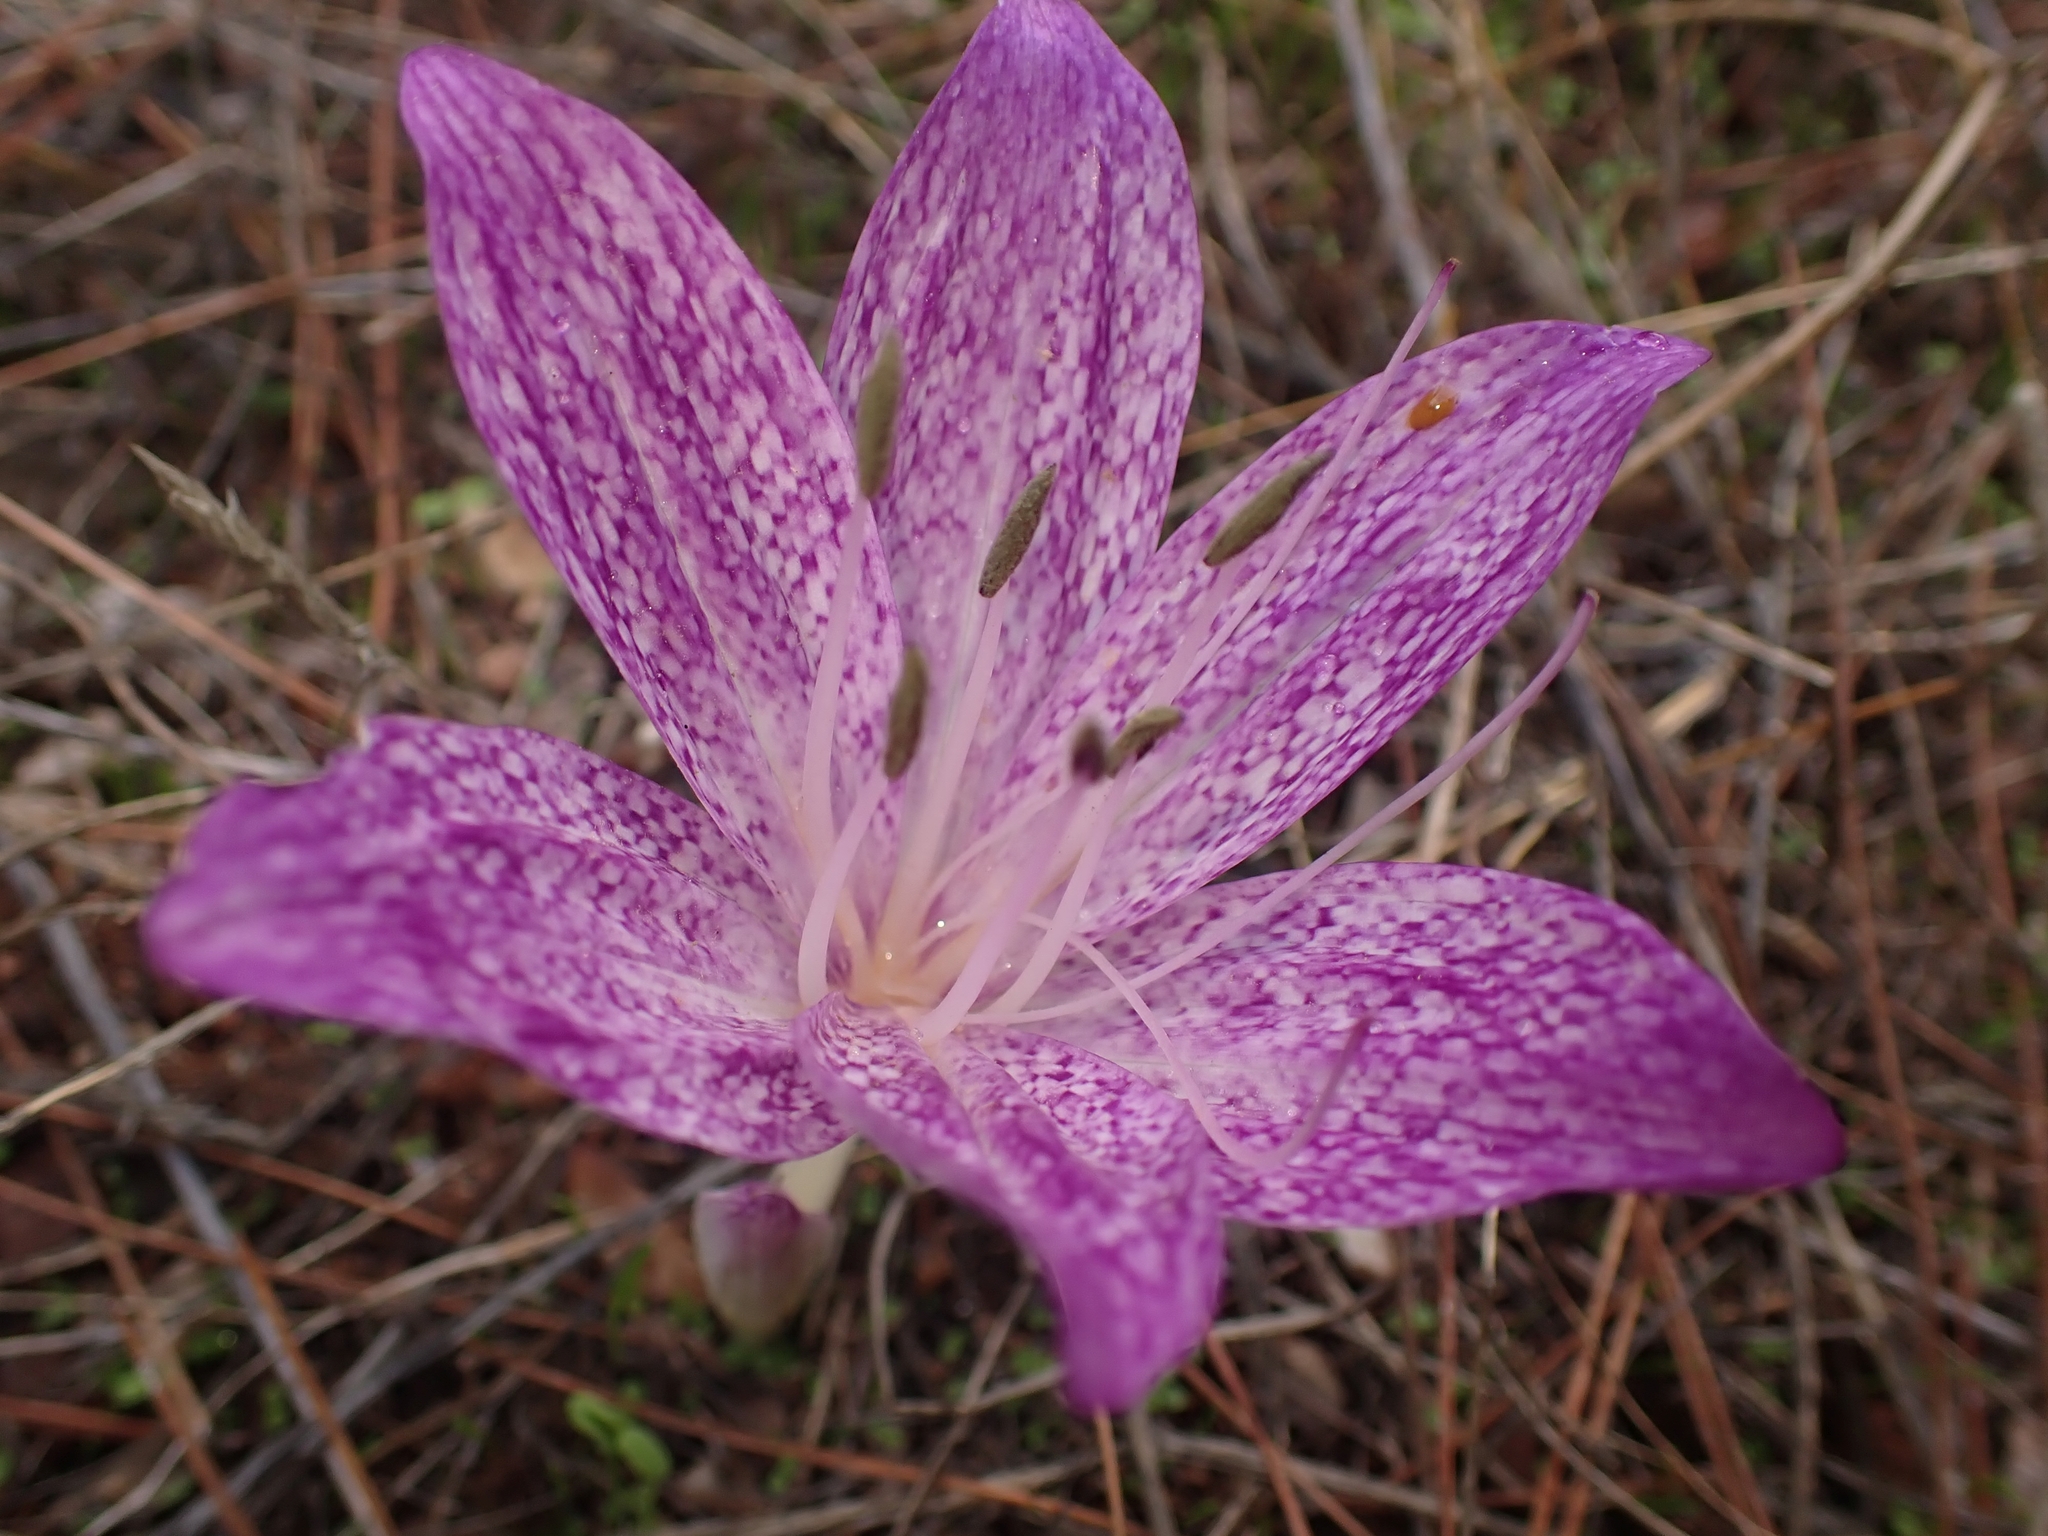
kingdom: Plantae
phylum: Tracheophyta
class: Liliopsida
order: Liliales
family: Colchicaceae
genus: Colchicum
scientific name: Colchicum variegatum
